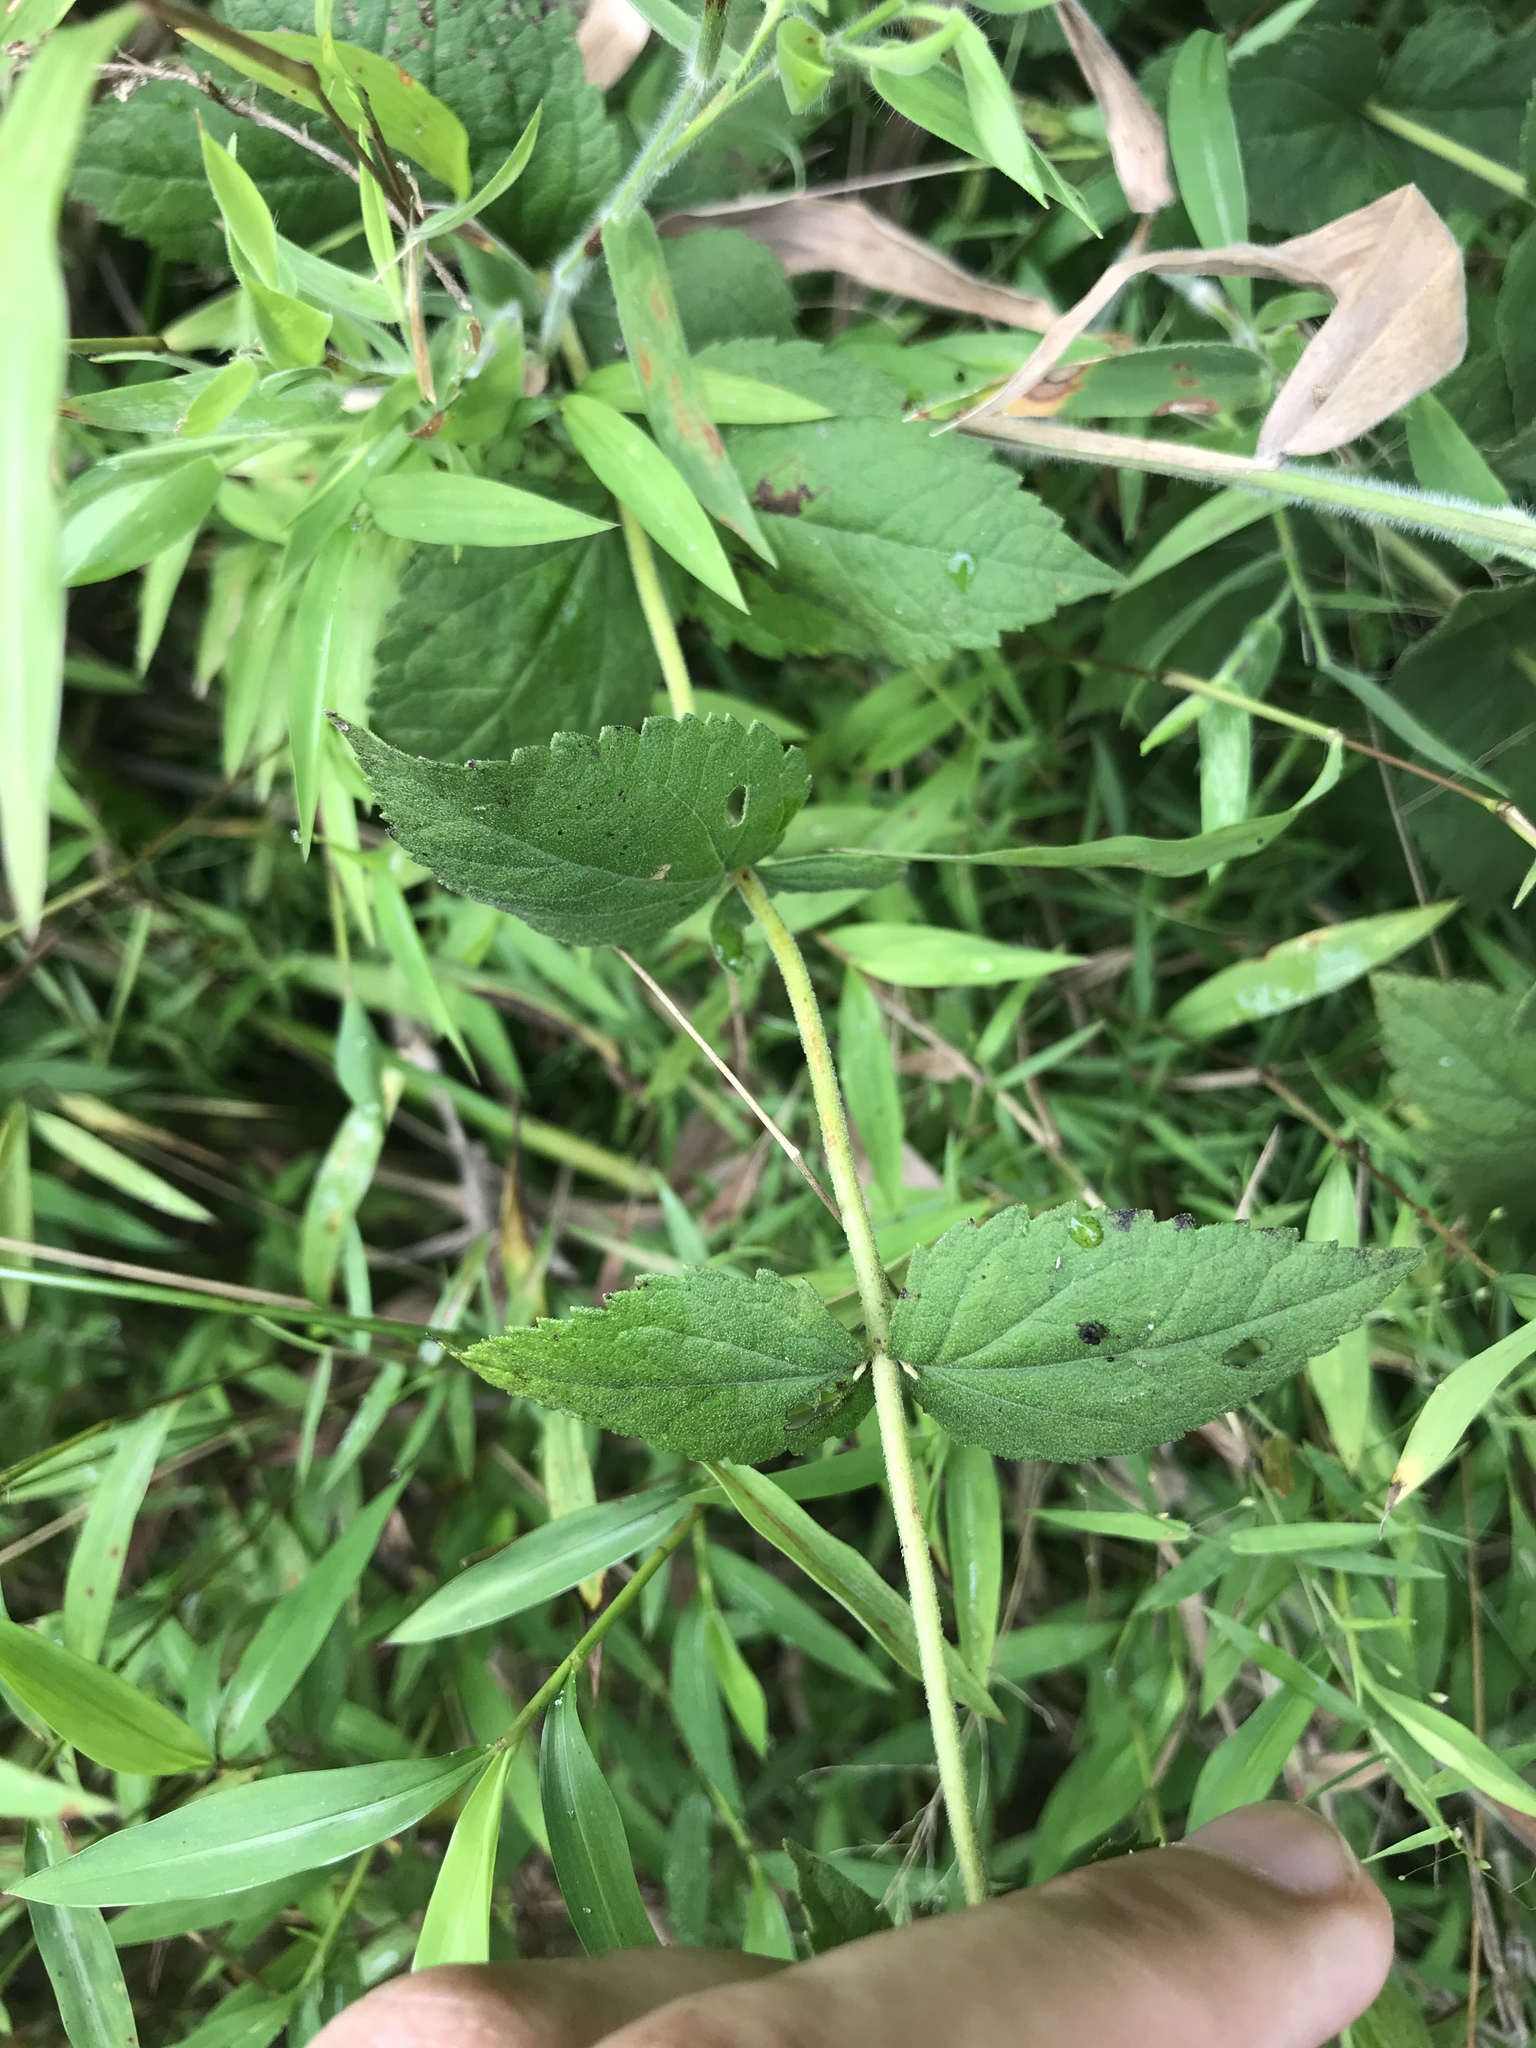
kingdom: Plantae
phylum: Tracheophyta
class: Magnoliopsida
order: Asterales
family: Asteraceae
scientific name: Asteraceae
